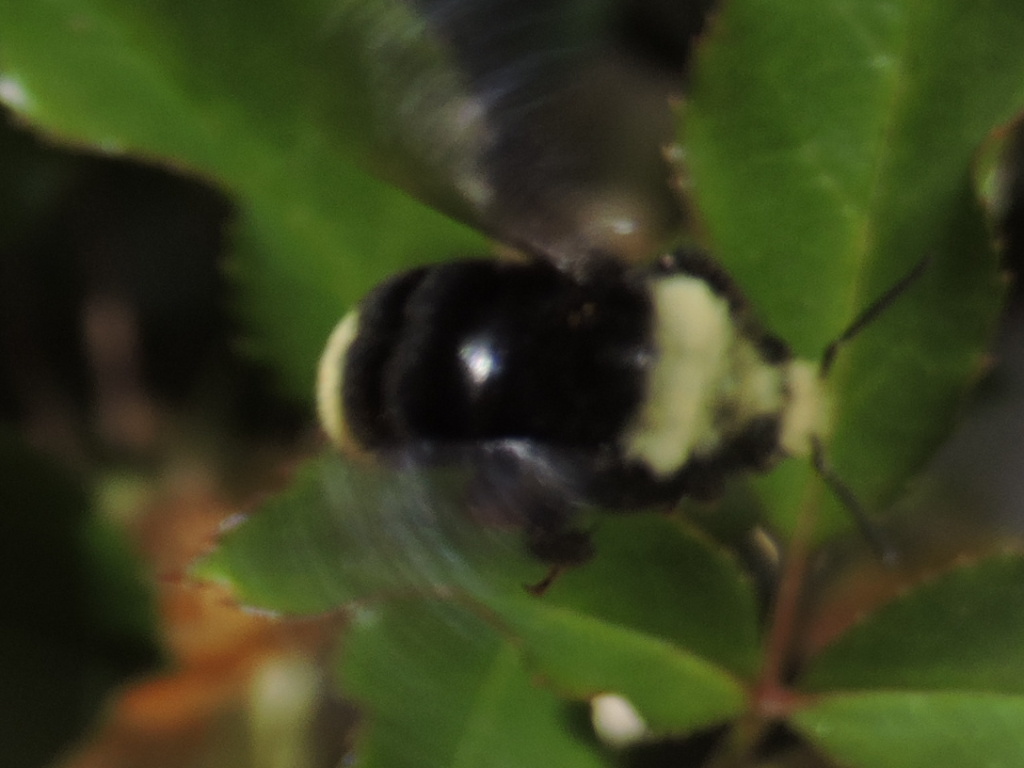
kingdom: Animalia
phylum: Arthropoda
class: Insecta
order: Hymenoptera
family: Apidae
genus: Bombus
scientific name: Bombus vosnesenskii
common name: Vosnesensky bumble bee
